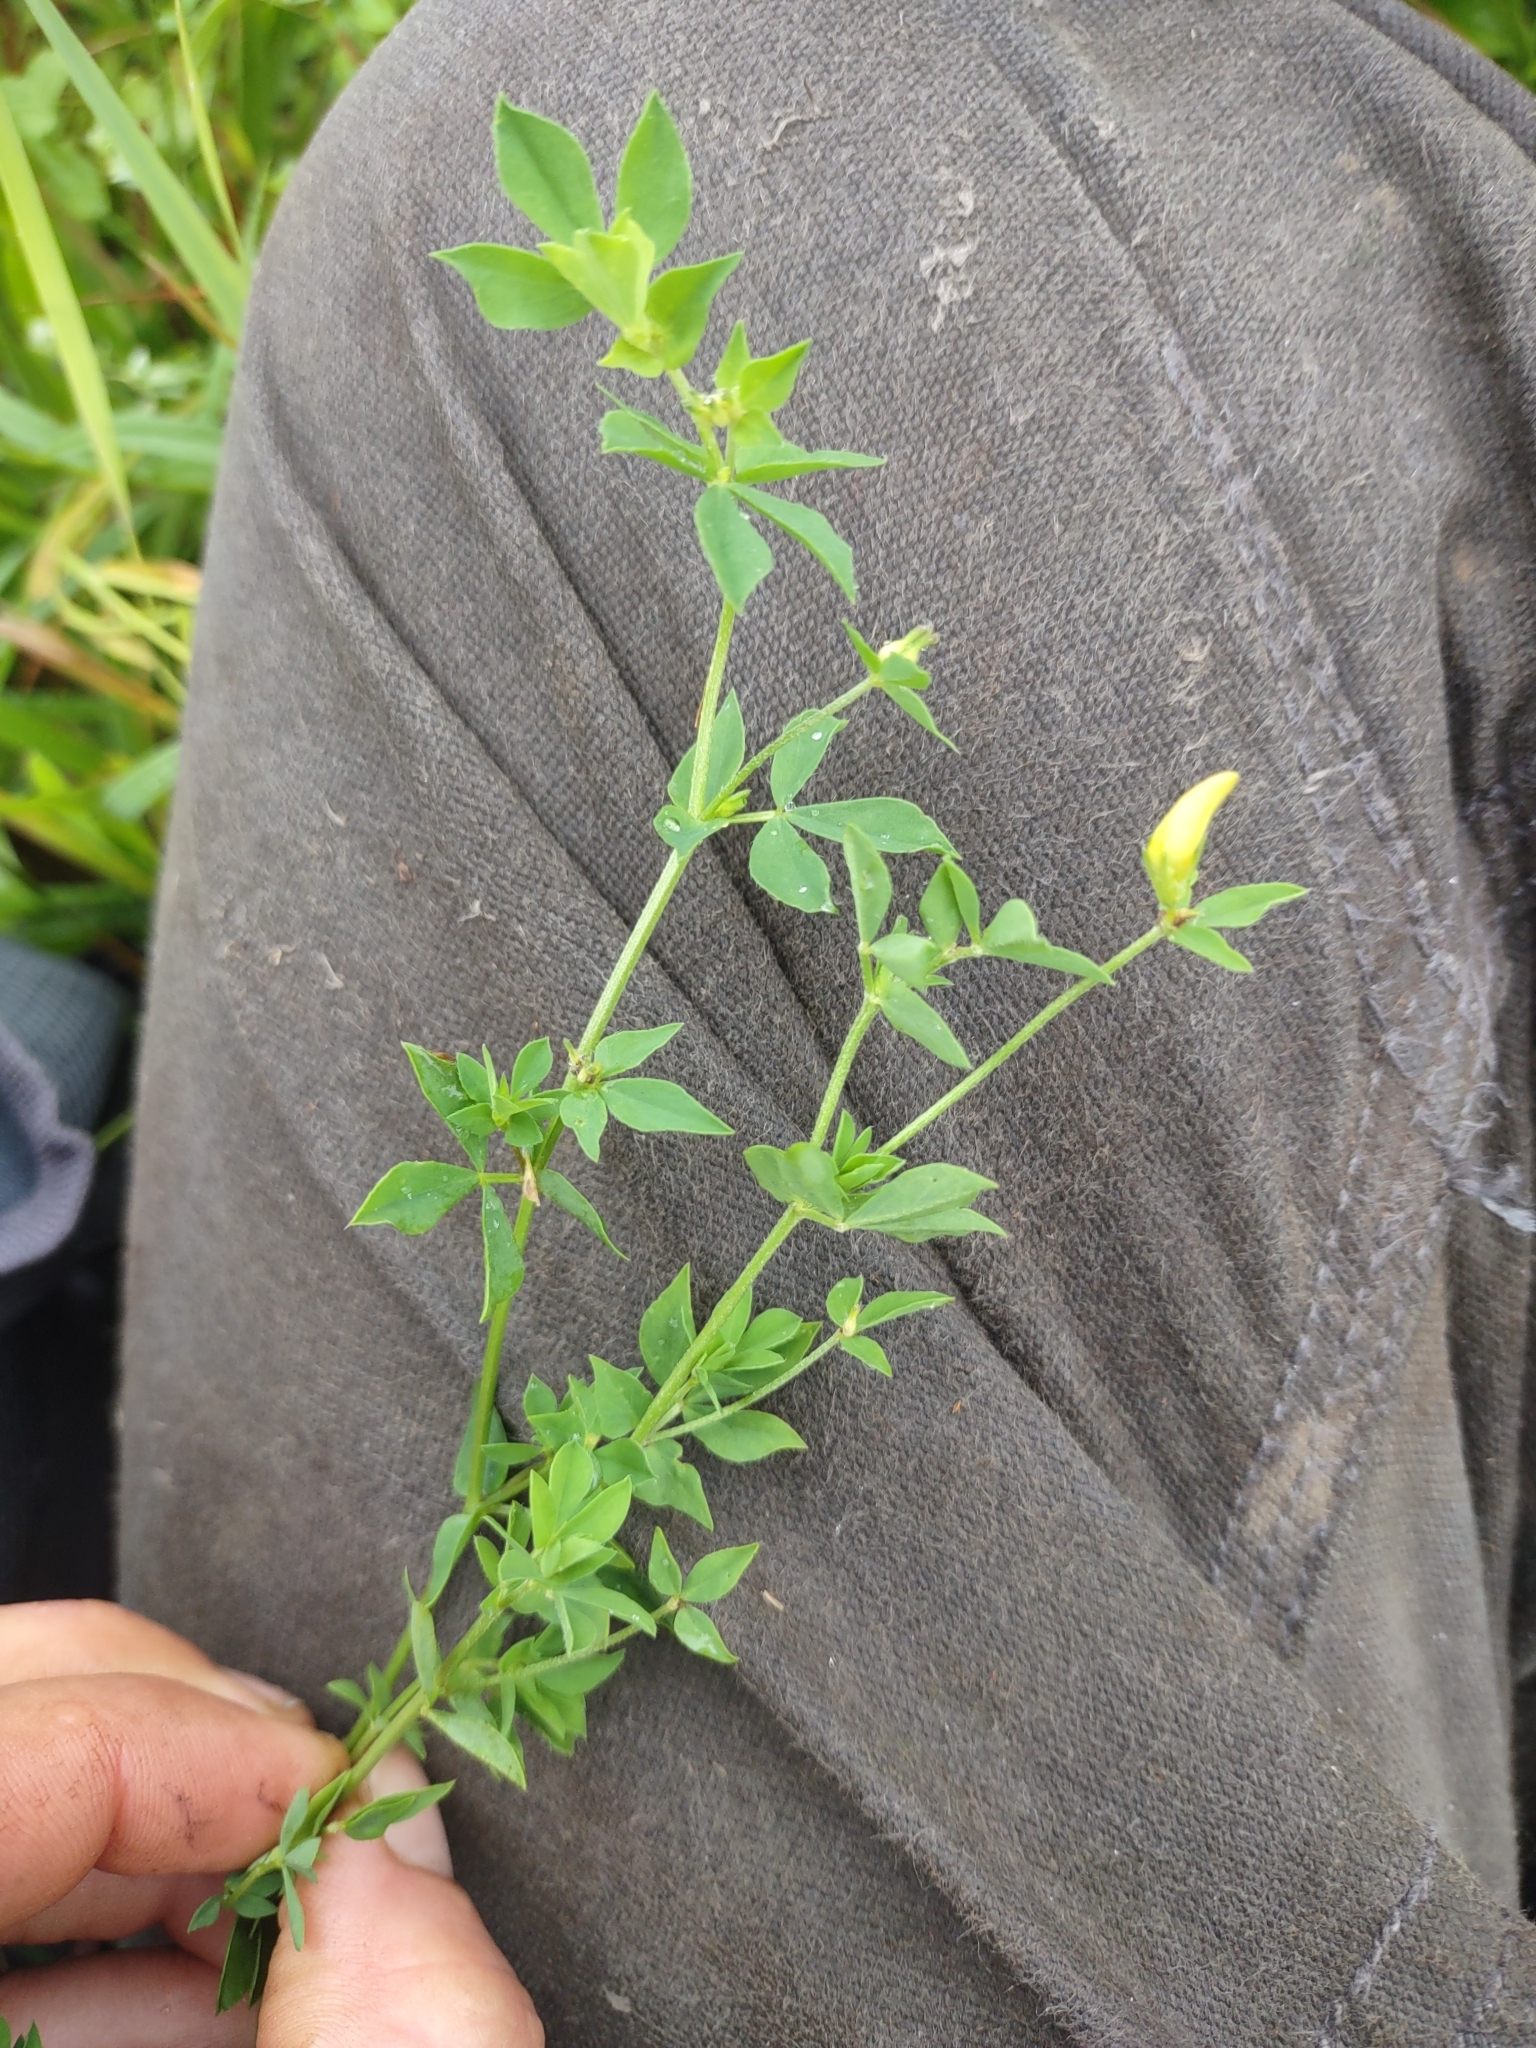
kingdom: Plantae
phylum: Tracheophyta
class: Magnoliopsida
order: Fabales
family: Fabaceae
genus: Lotus
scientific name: Lotus corniculatus
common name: Common bird's-foot-trefoil
